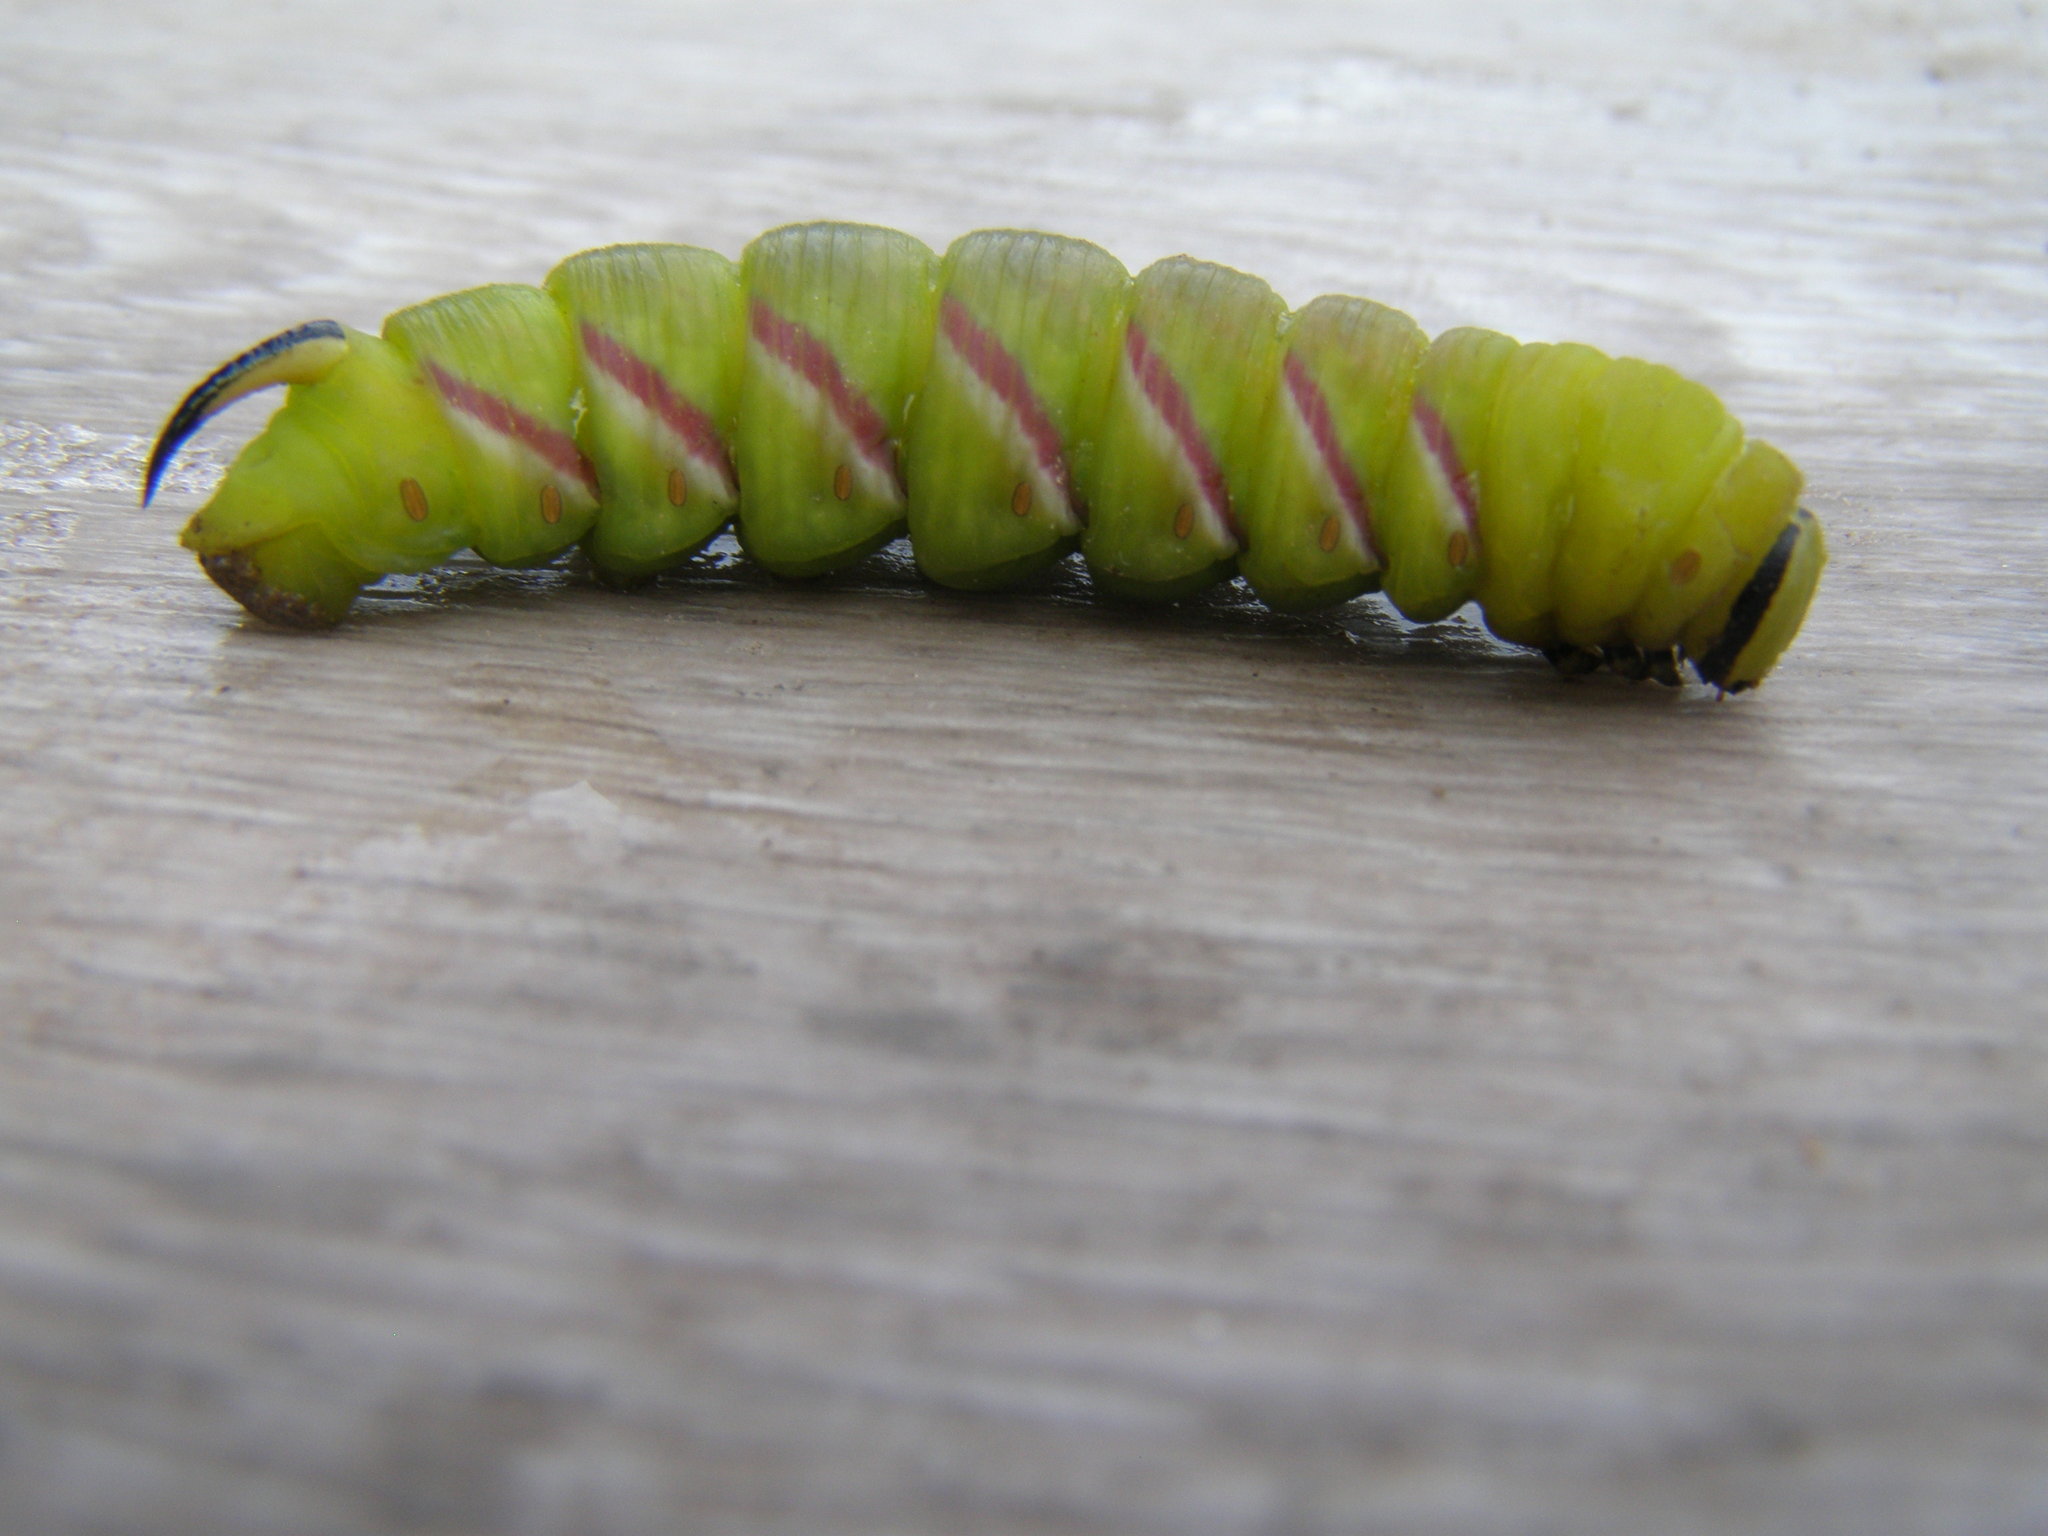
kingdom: Animalia
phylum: Arthropoda
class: Insecta
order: Lepidoptera
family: Sphingidae
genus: Sphinx
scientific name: Sphinx ligustri
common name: Privet hawk-moth
